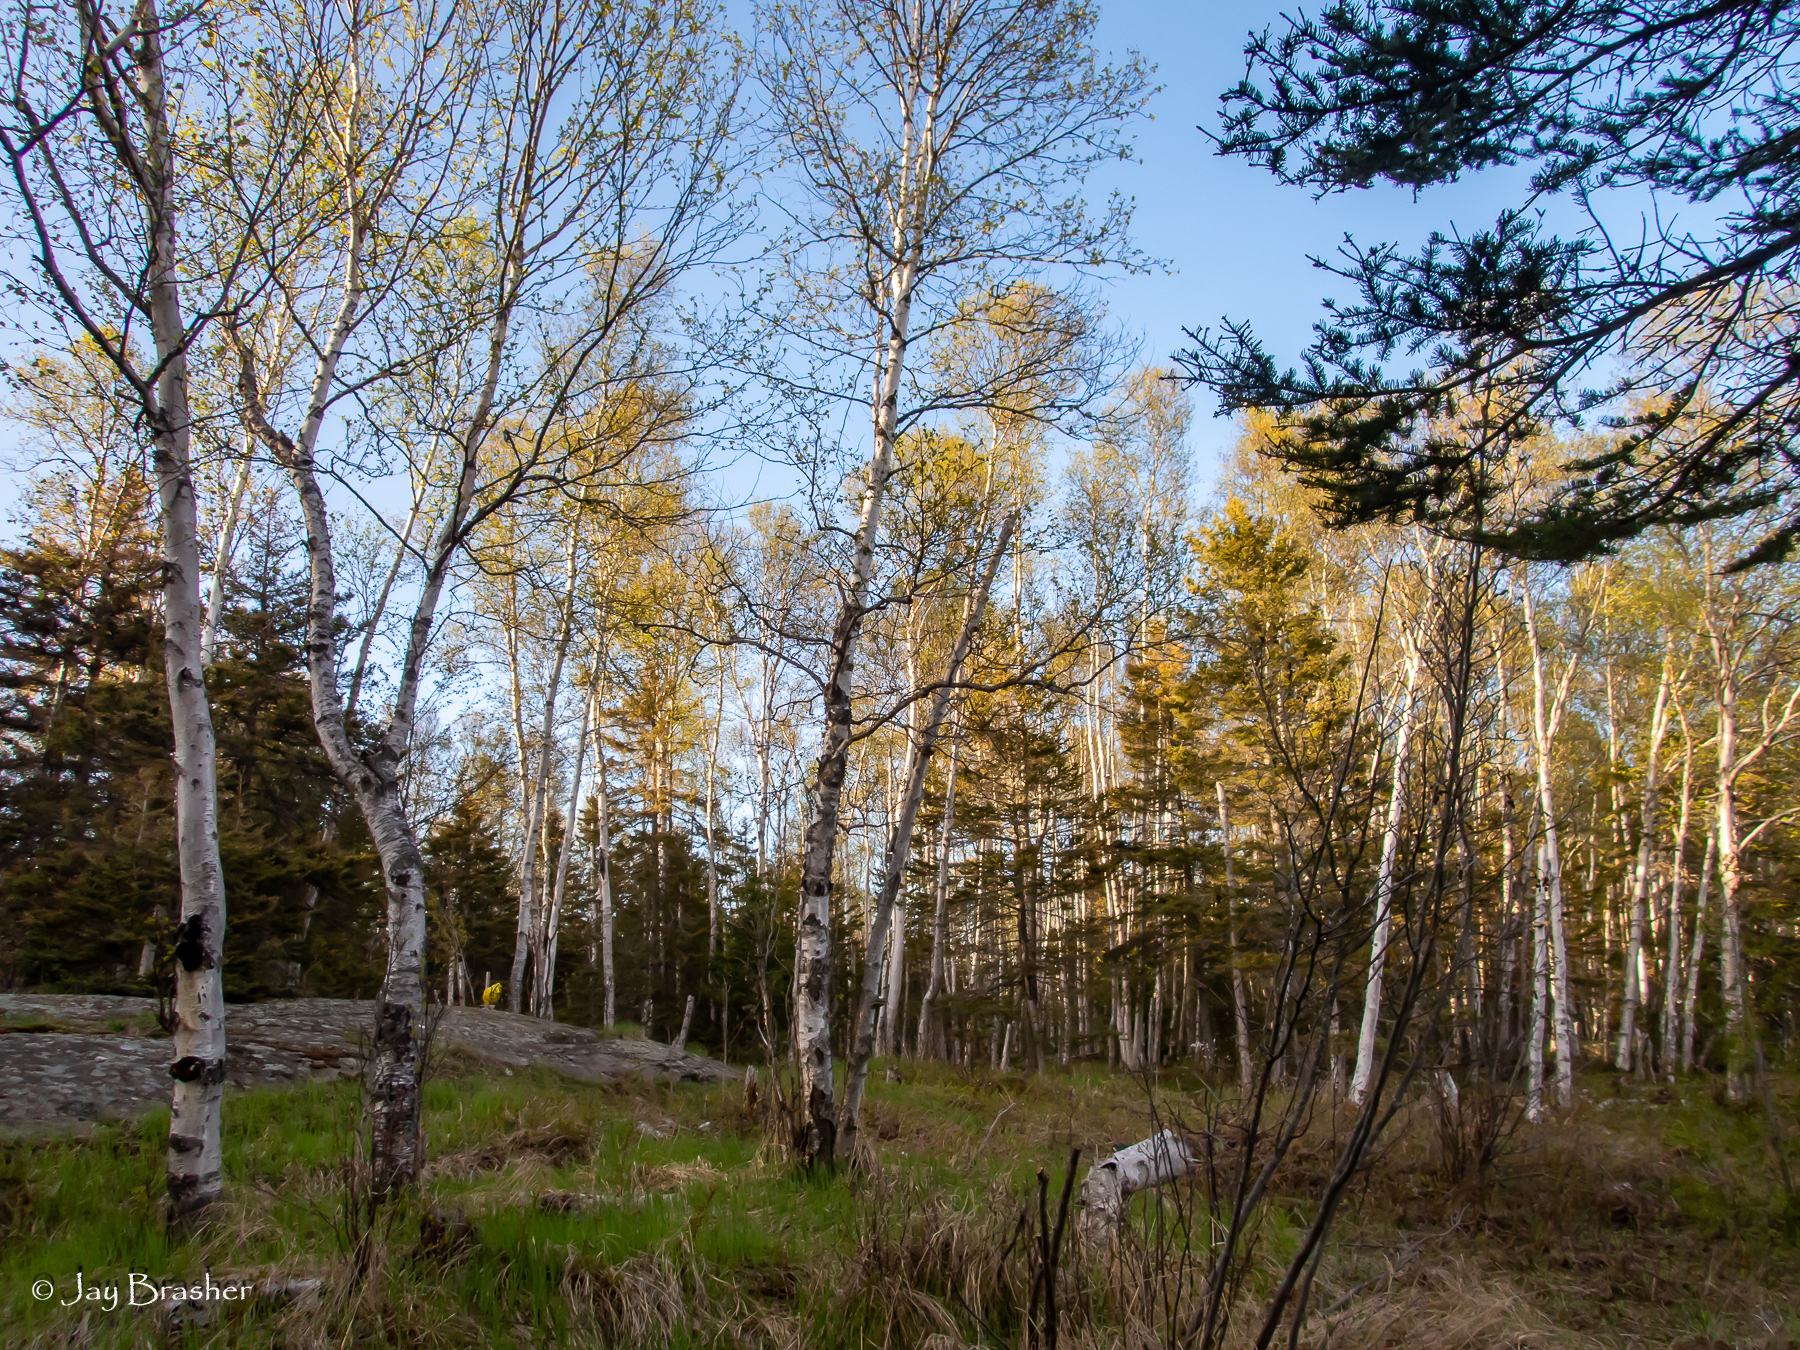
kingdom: Plantae
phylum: Tracheophyta
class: Magnoliopsida
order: Malpighiales
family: Salicaceae
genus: Populus
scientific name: Populus tremuloides
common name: Quaking aspen
